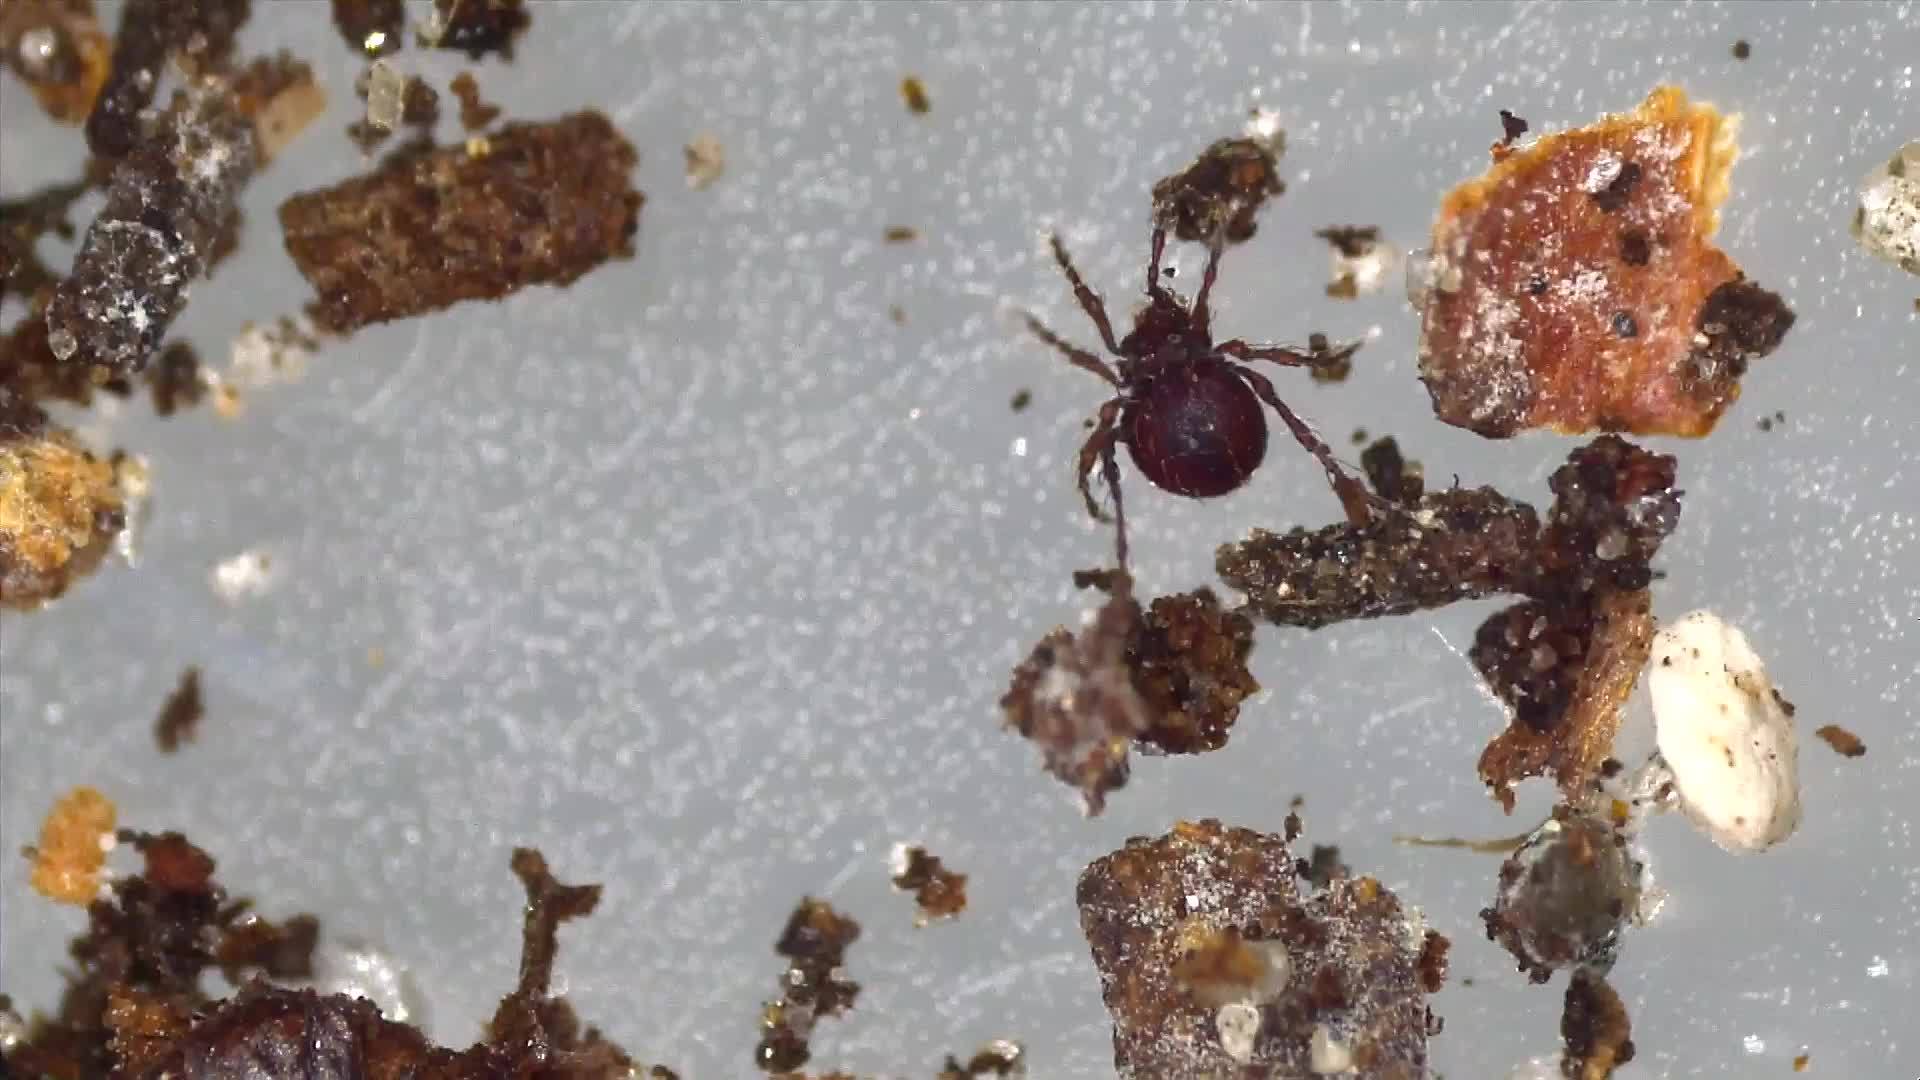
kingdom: Animalia
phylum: Arthropoda
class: Arachnida
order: Sarcoptiformes
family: Damaeidae
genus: Damaeus
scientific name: Damaeus onustus
